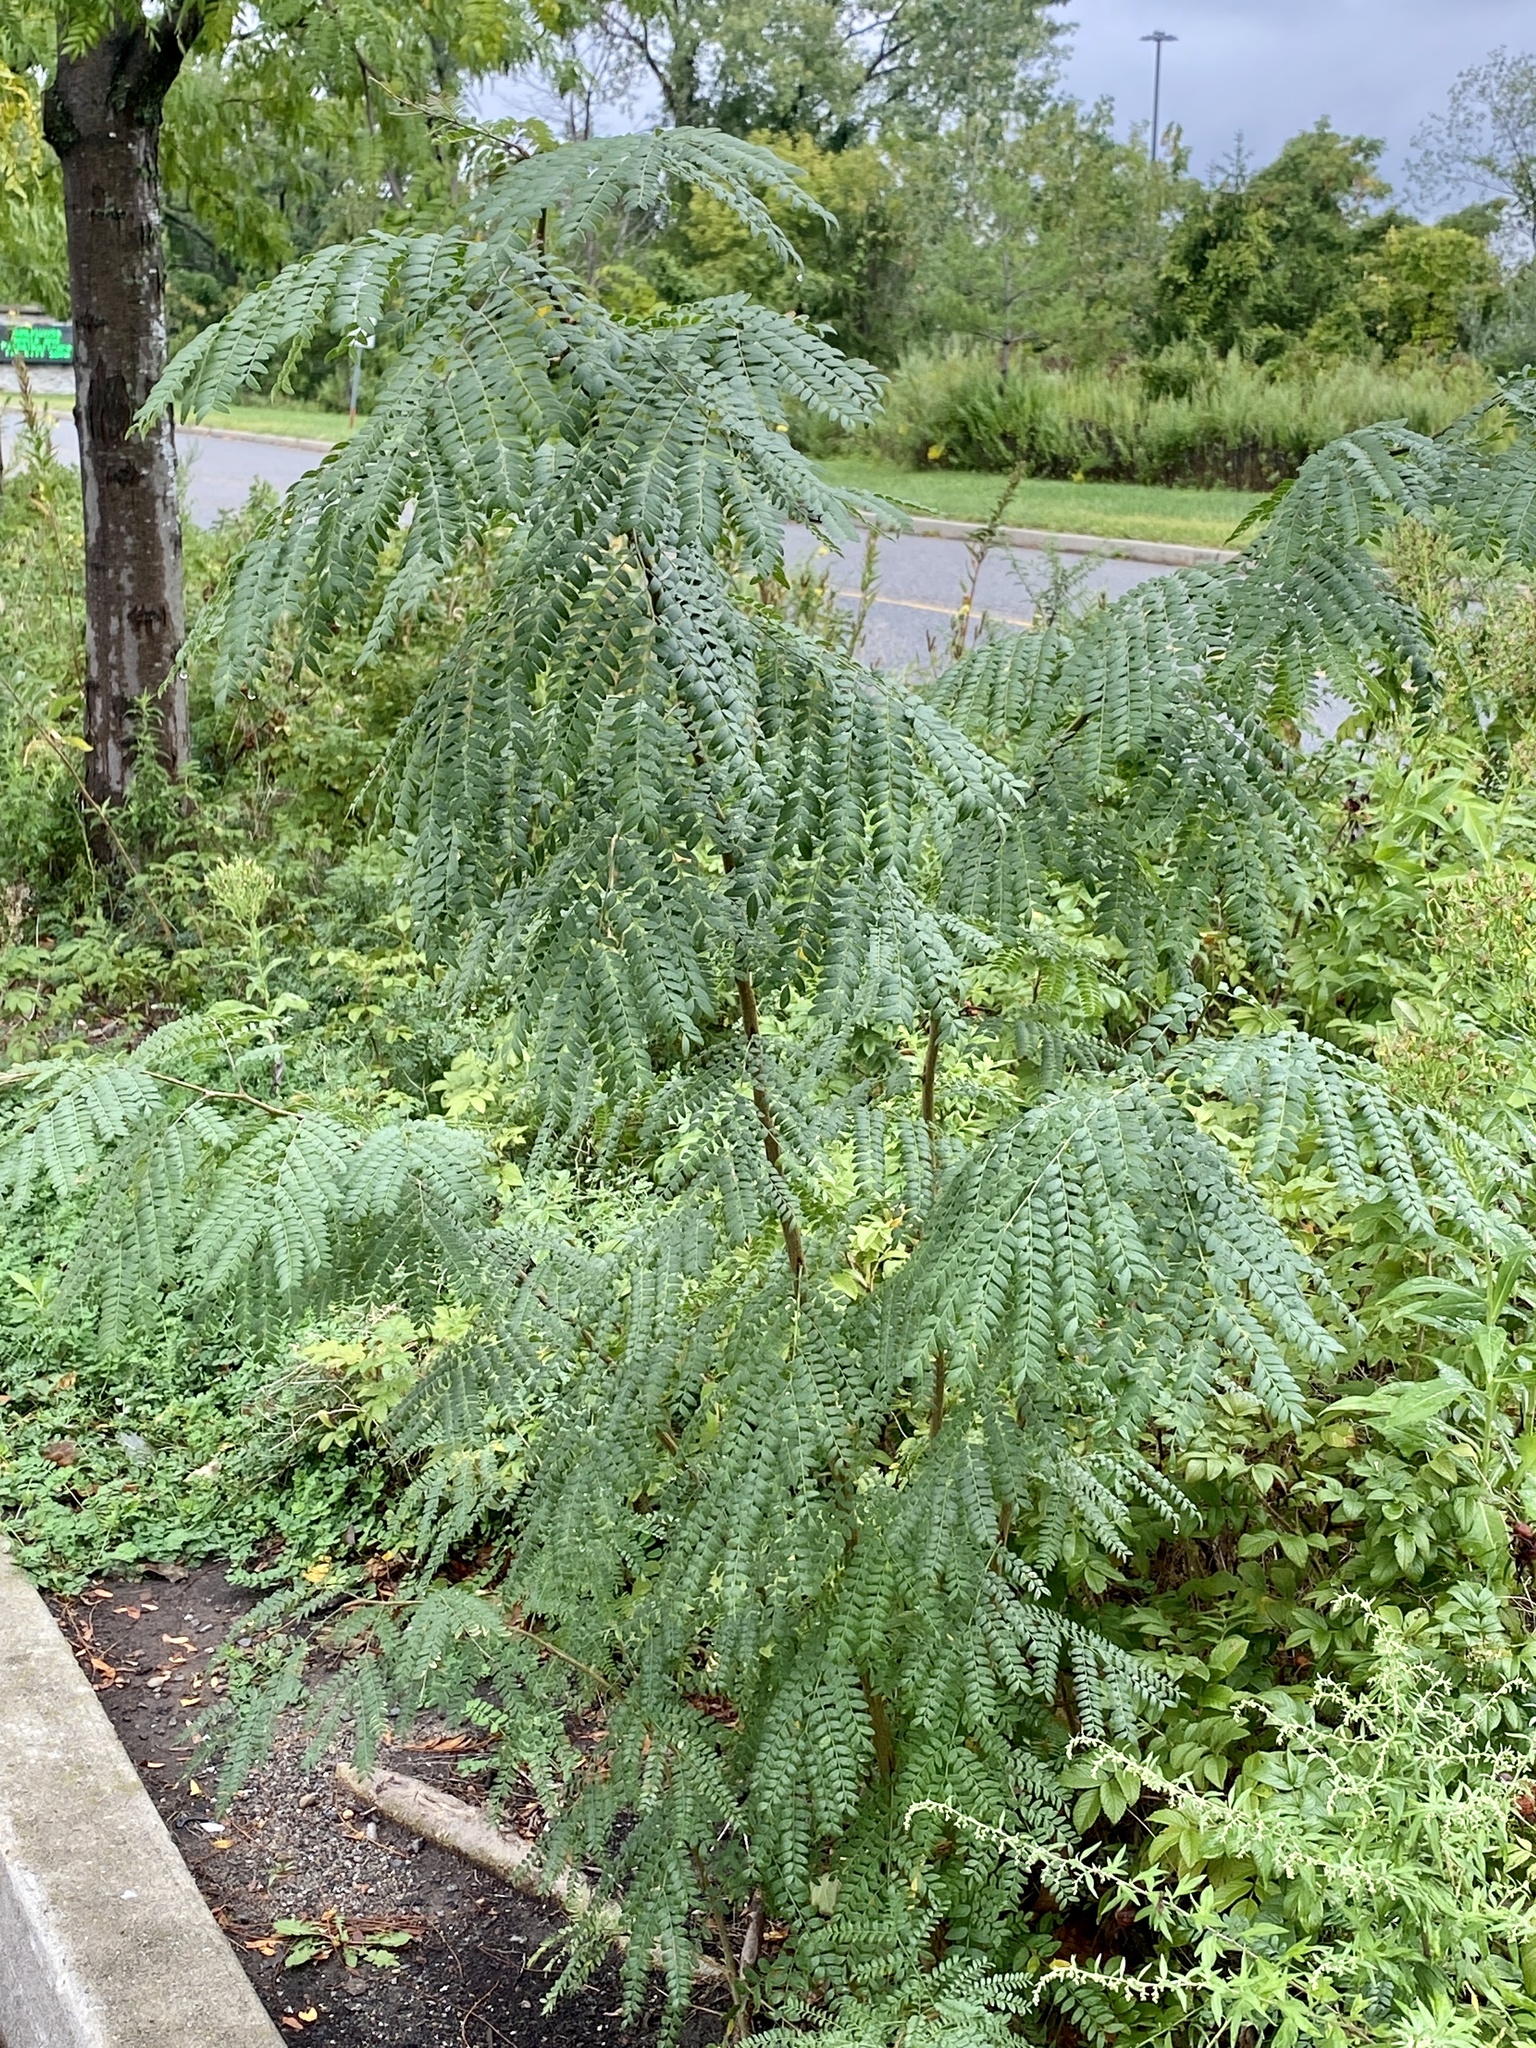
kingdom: Plantae
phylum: Tracheophyta
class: Magnoliopsida
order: Fabales
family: Fabaceae
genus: Gleditsia
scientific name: Gleditsia triacanthos
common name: Common honeylocust
